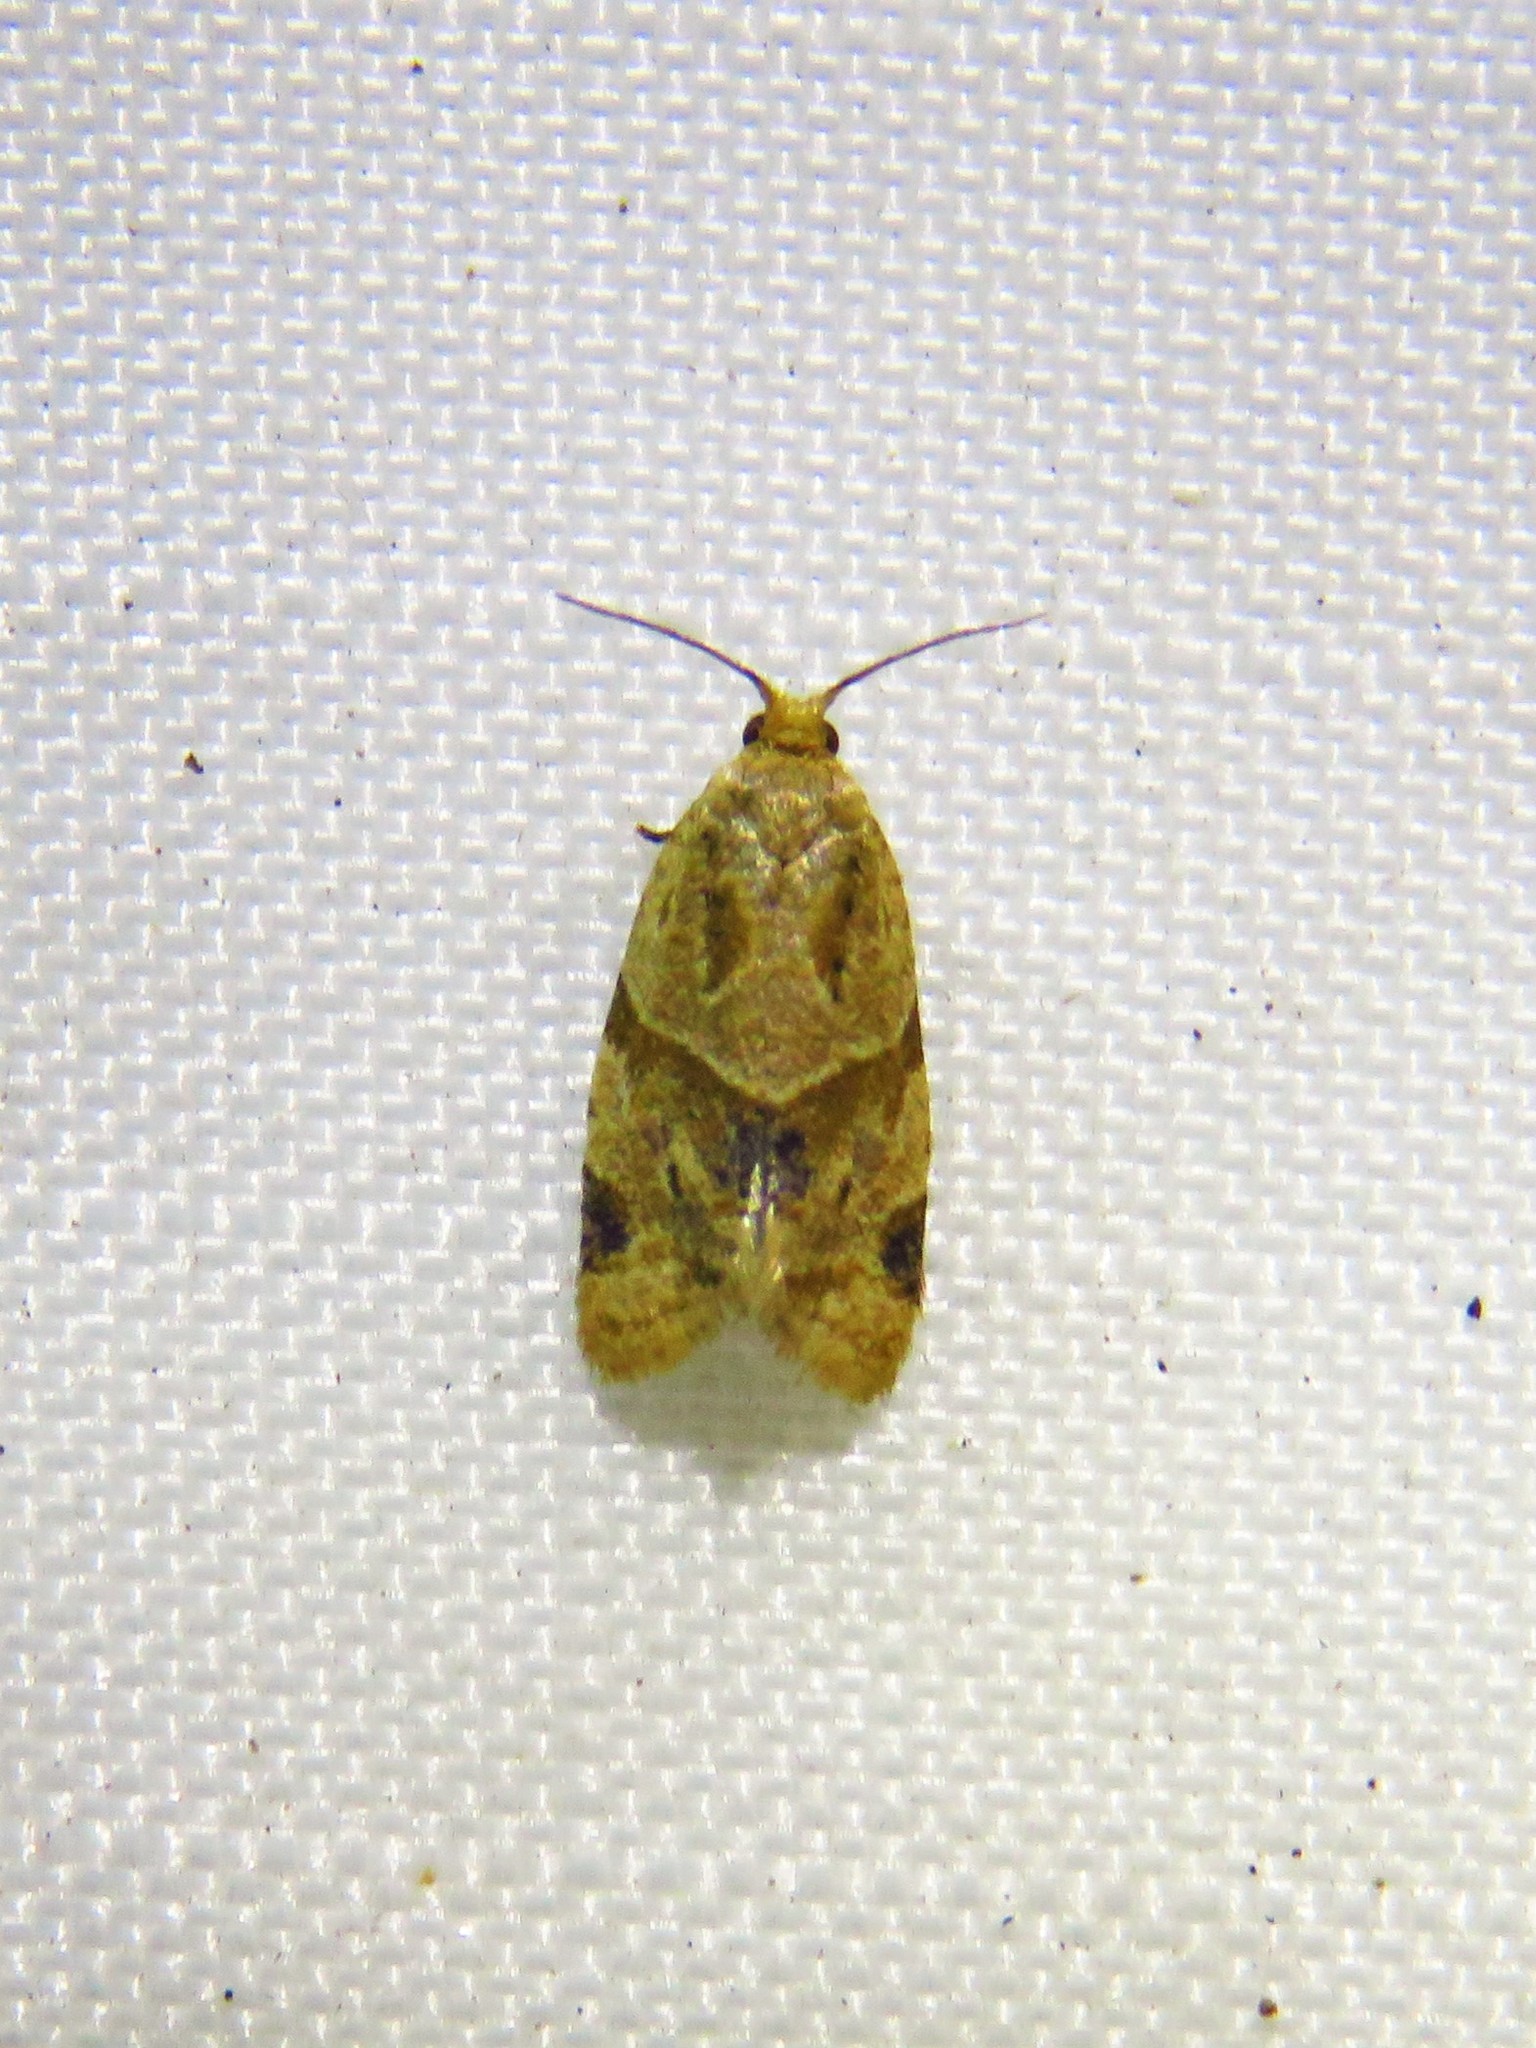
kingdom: Animalia
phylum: Arthropoda
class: Insecta
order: Lepidoptera
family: Tortricidae
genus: Clepsis
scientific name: Clepsis peritana
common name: Garden tortrix
